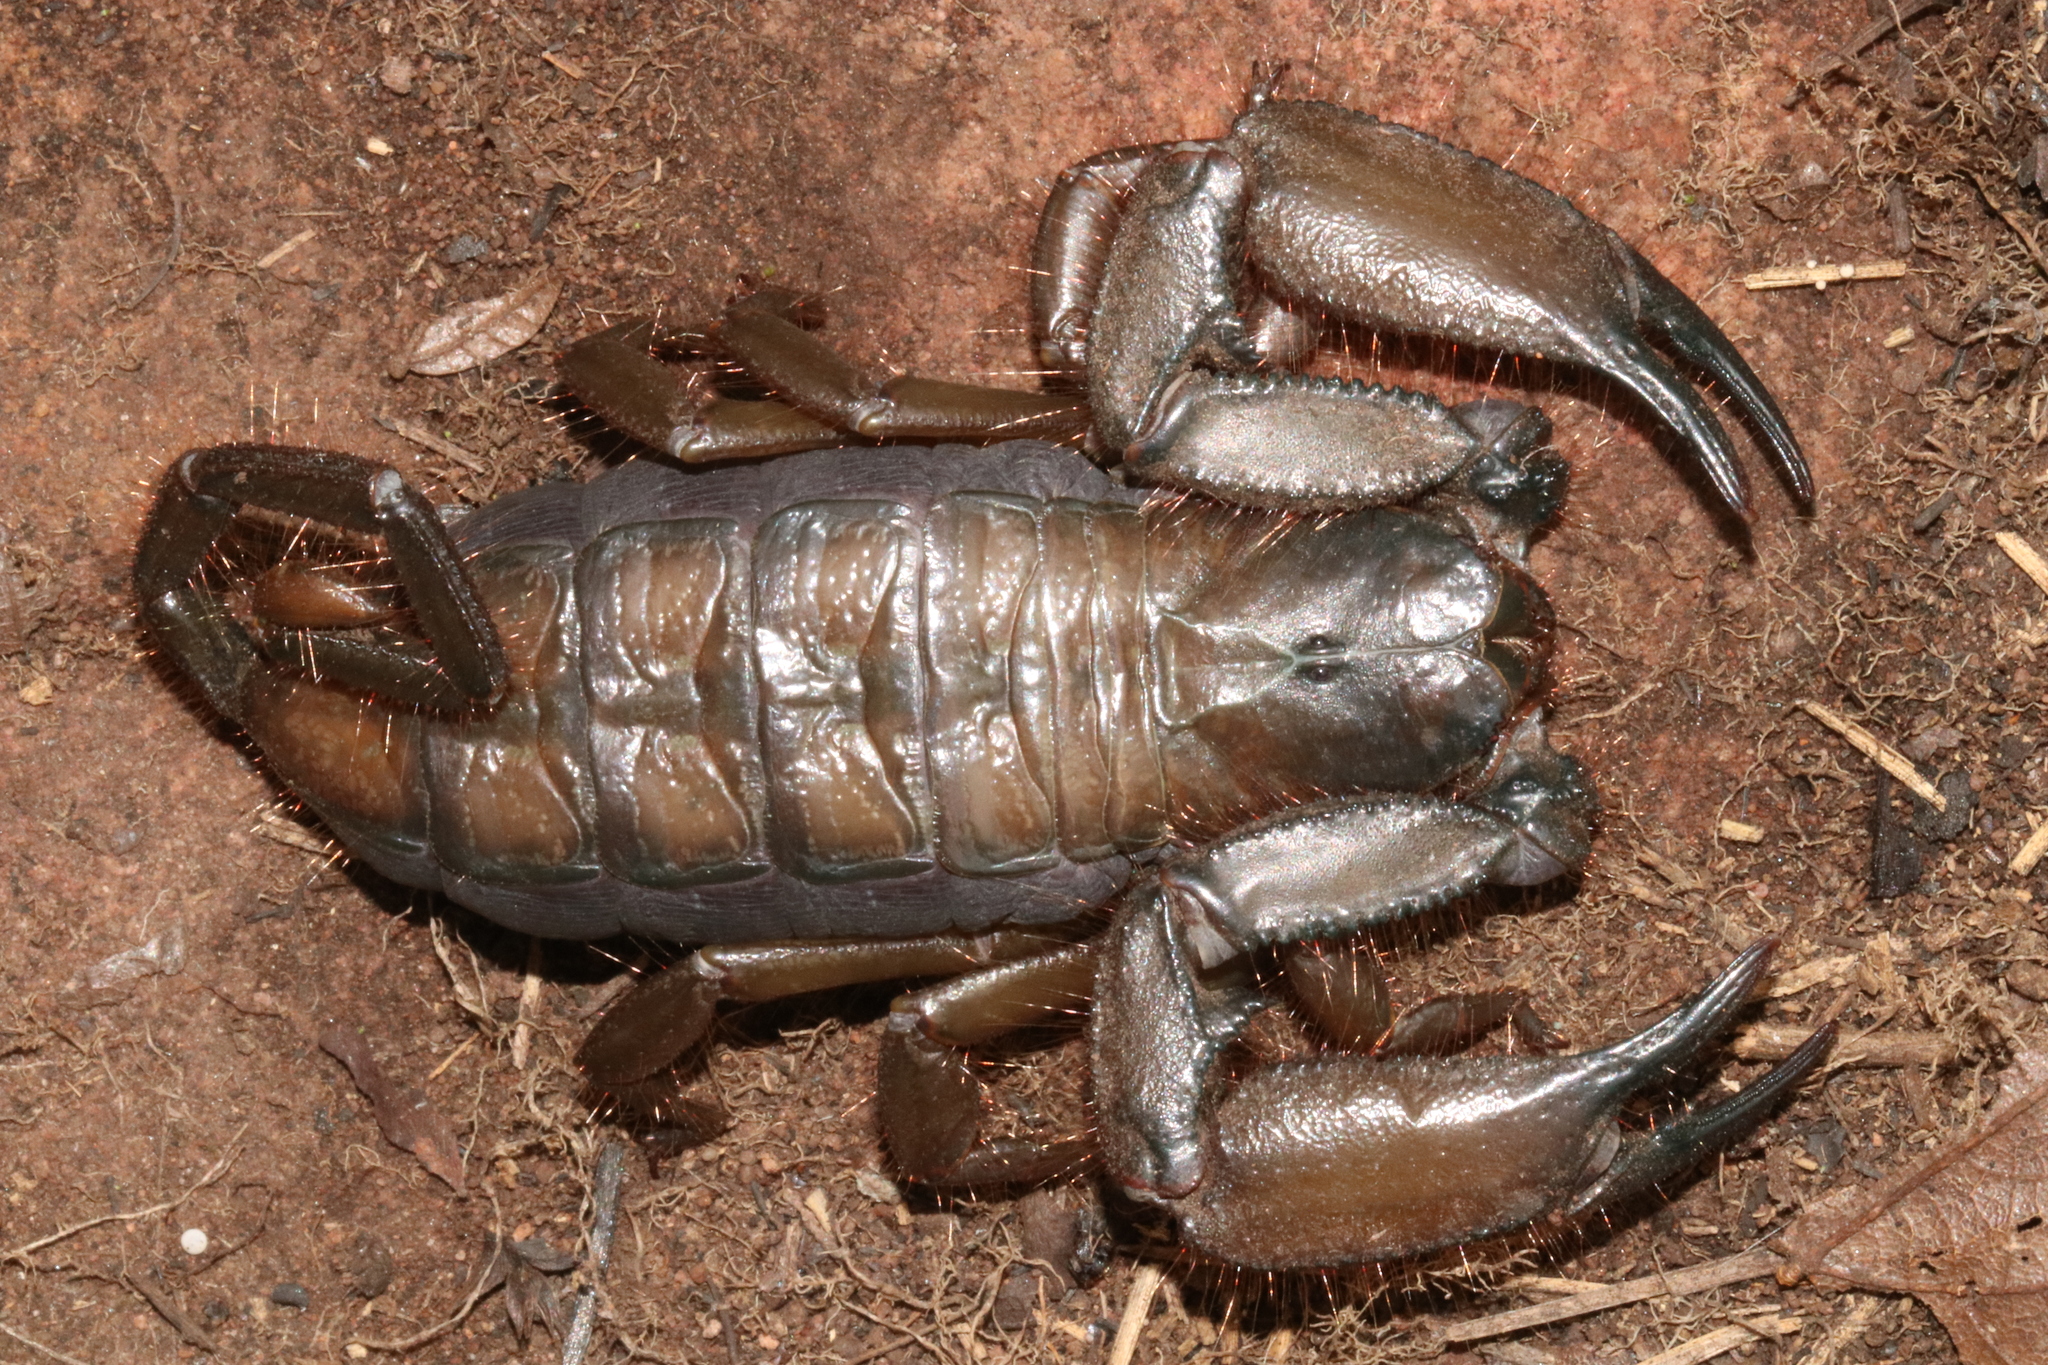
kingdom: Animalia
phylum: Arthropoda
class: Arachnida
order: Scorpiones
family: Hormuridae
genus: Hadogenes
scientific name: Hadogenes soutpansbergensis
